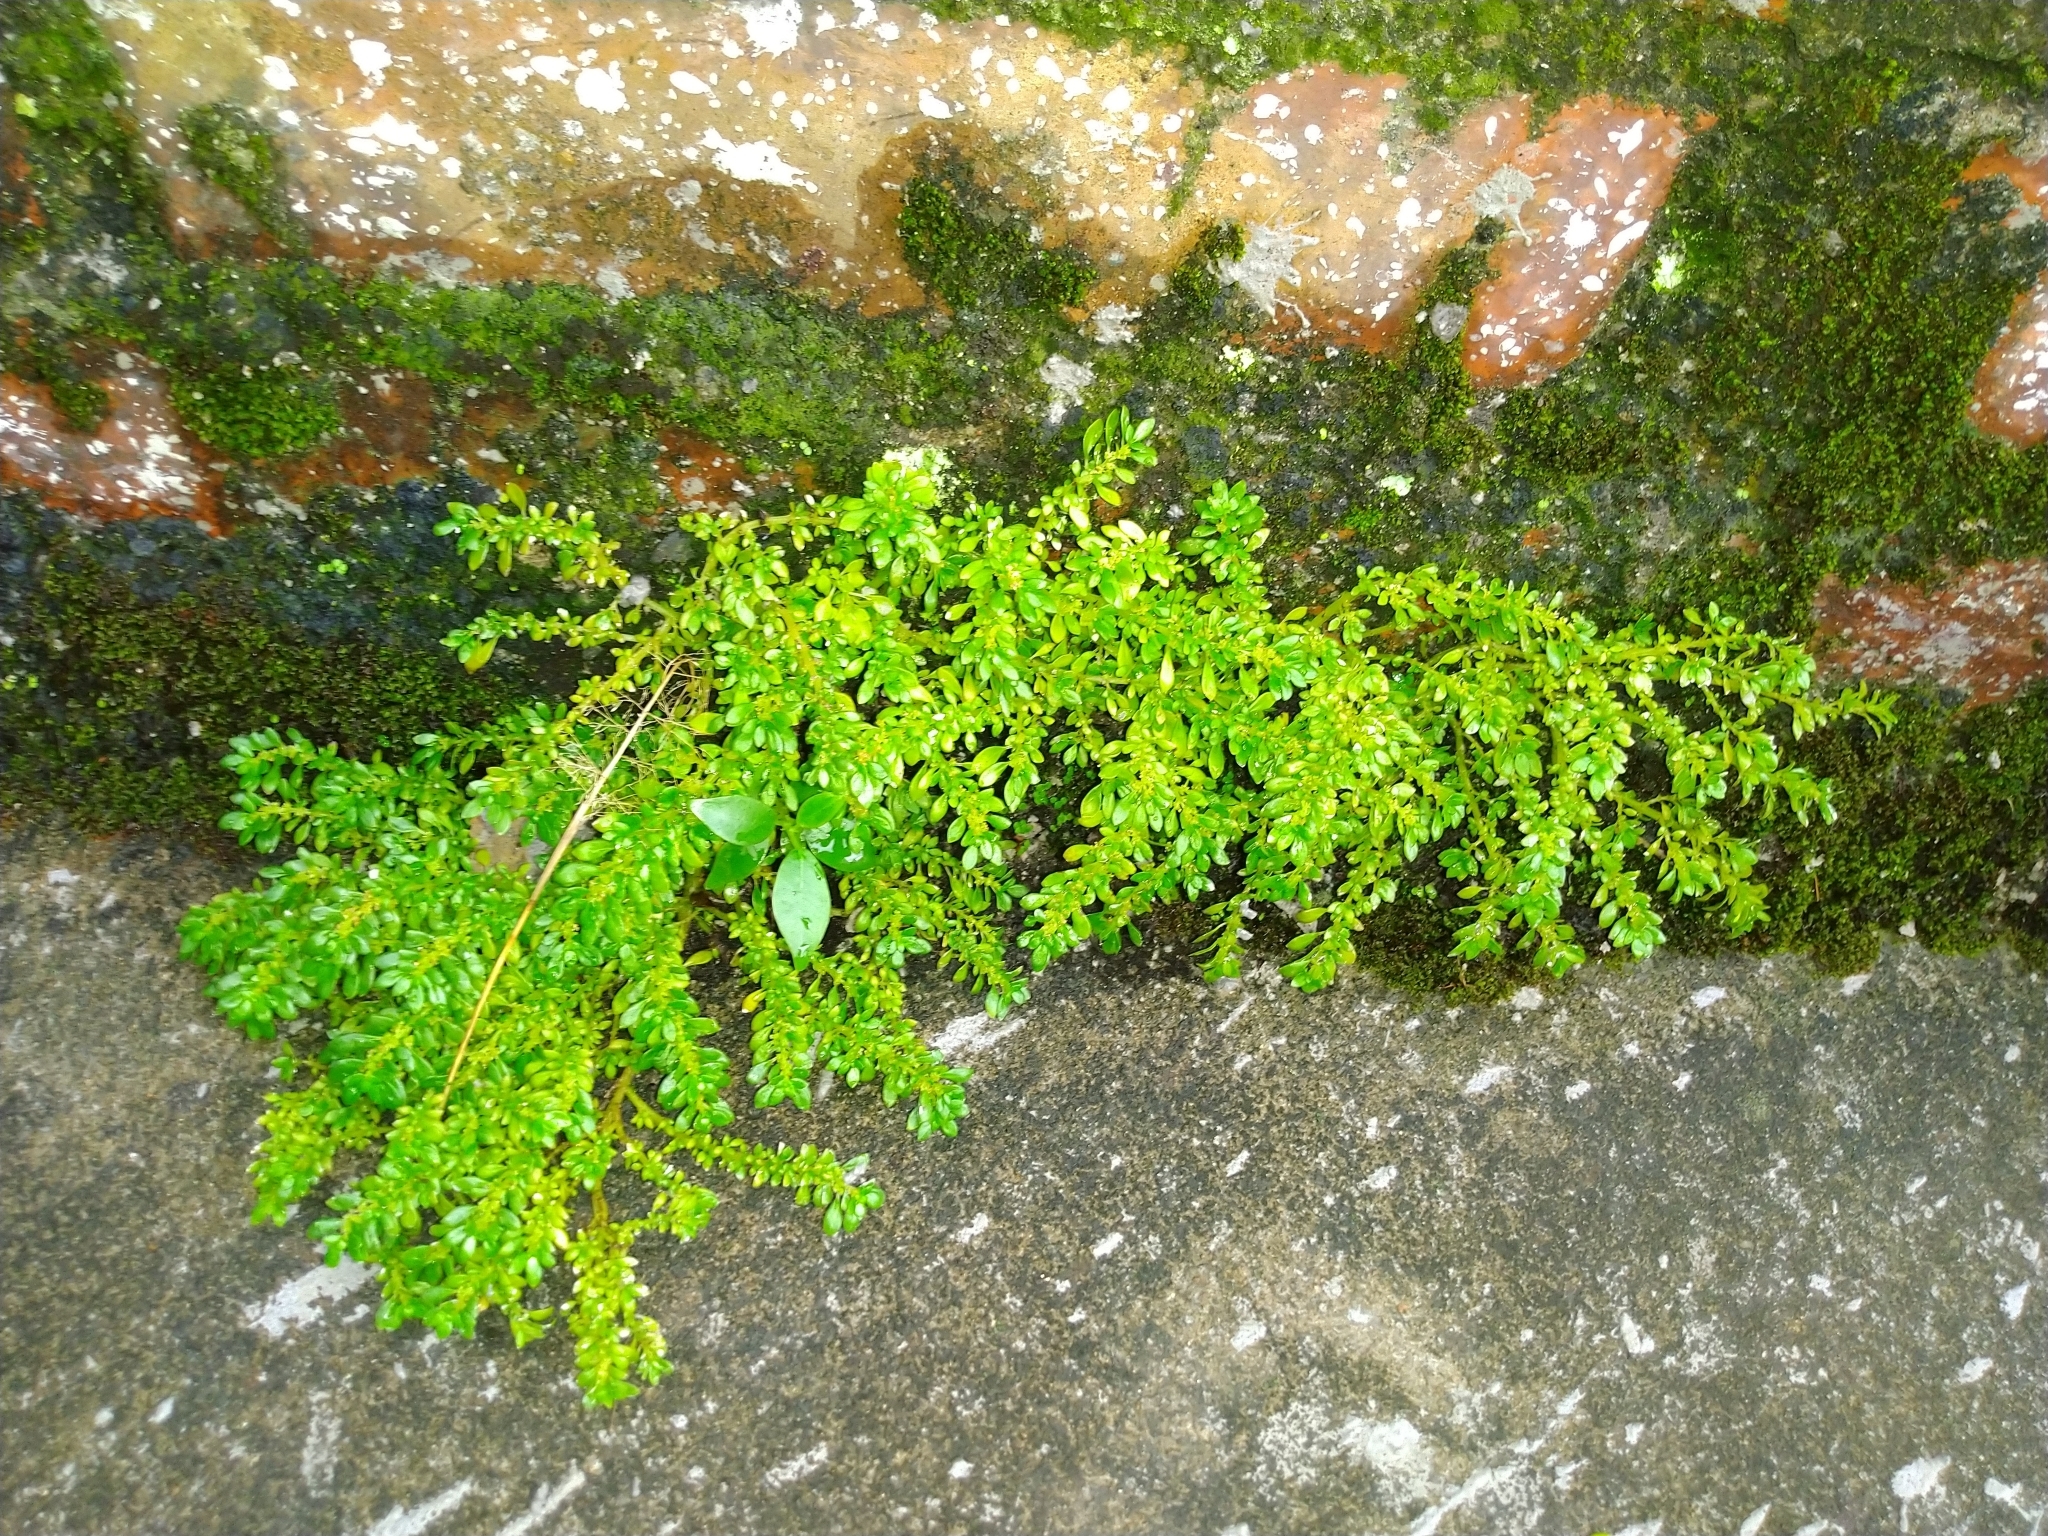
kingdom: Plantae
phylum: Tracheophyta
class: Magnoliopsida
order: Rosales
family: Urticaceae
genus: Pilea
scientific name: Pilea microphylla
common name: Artillery-plant
